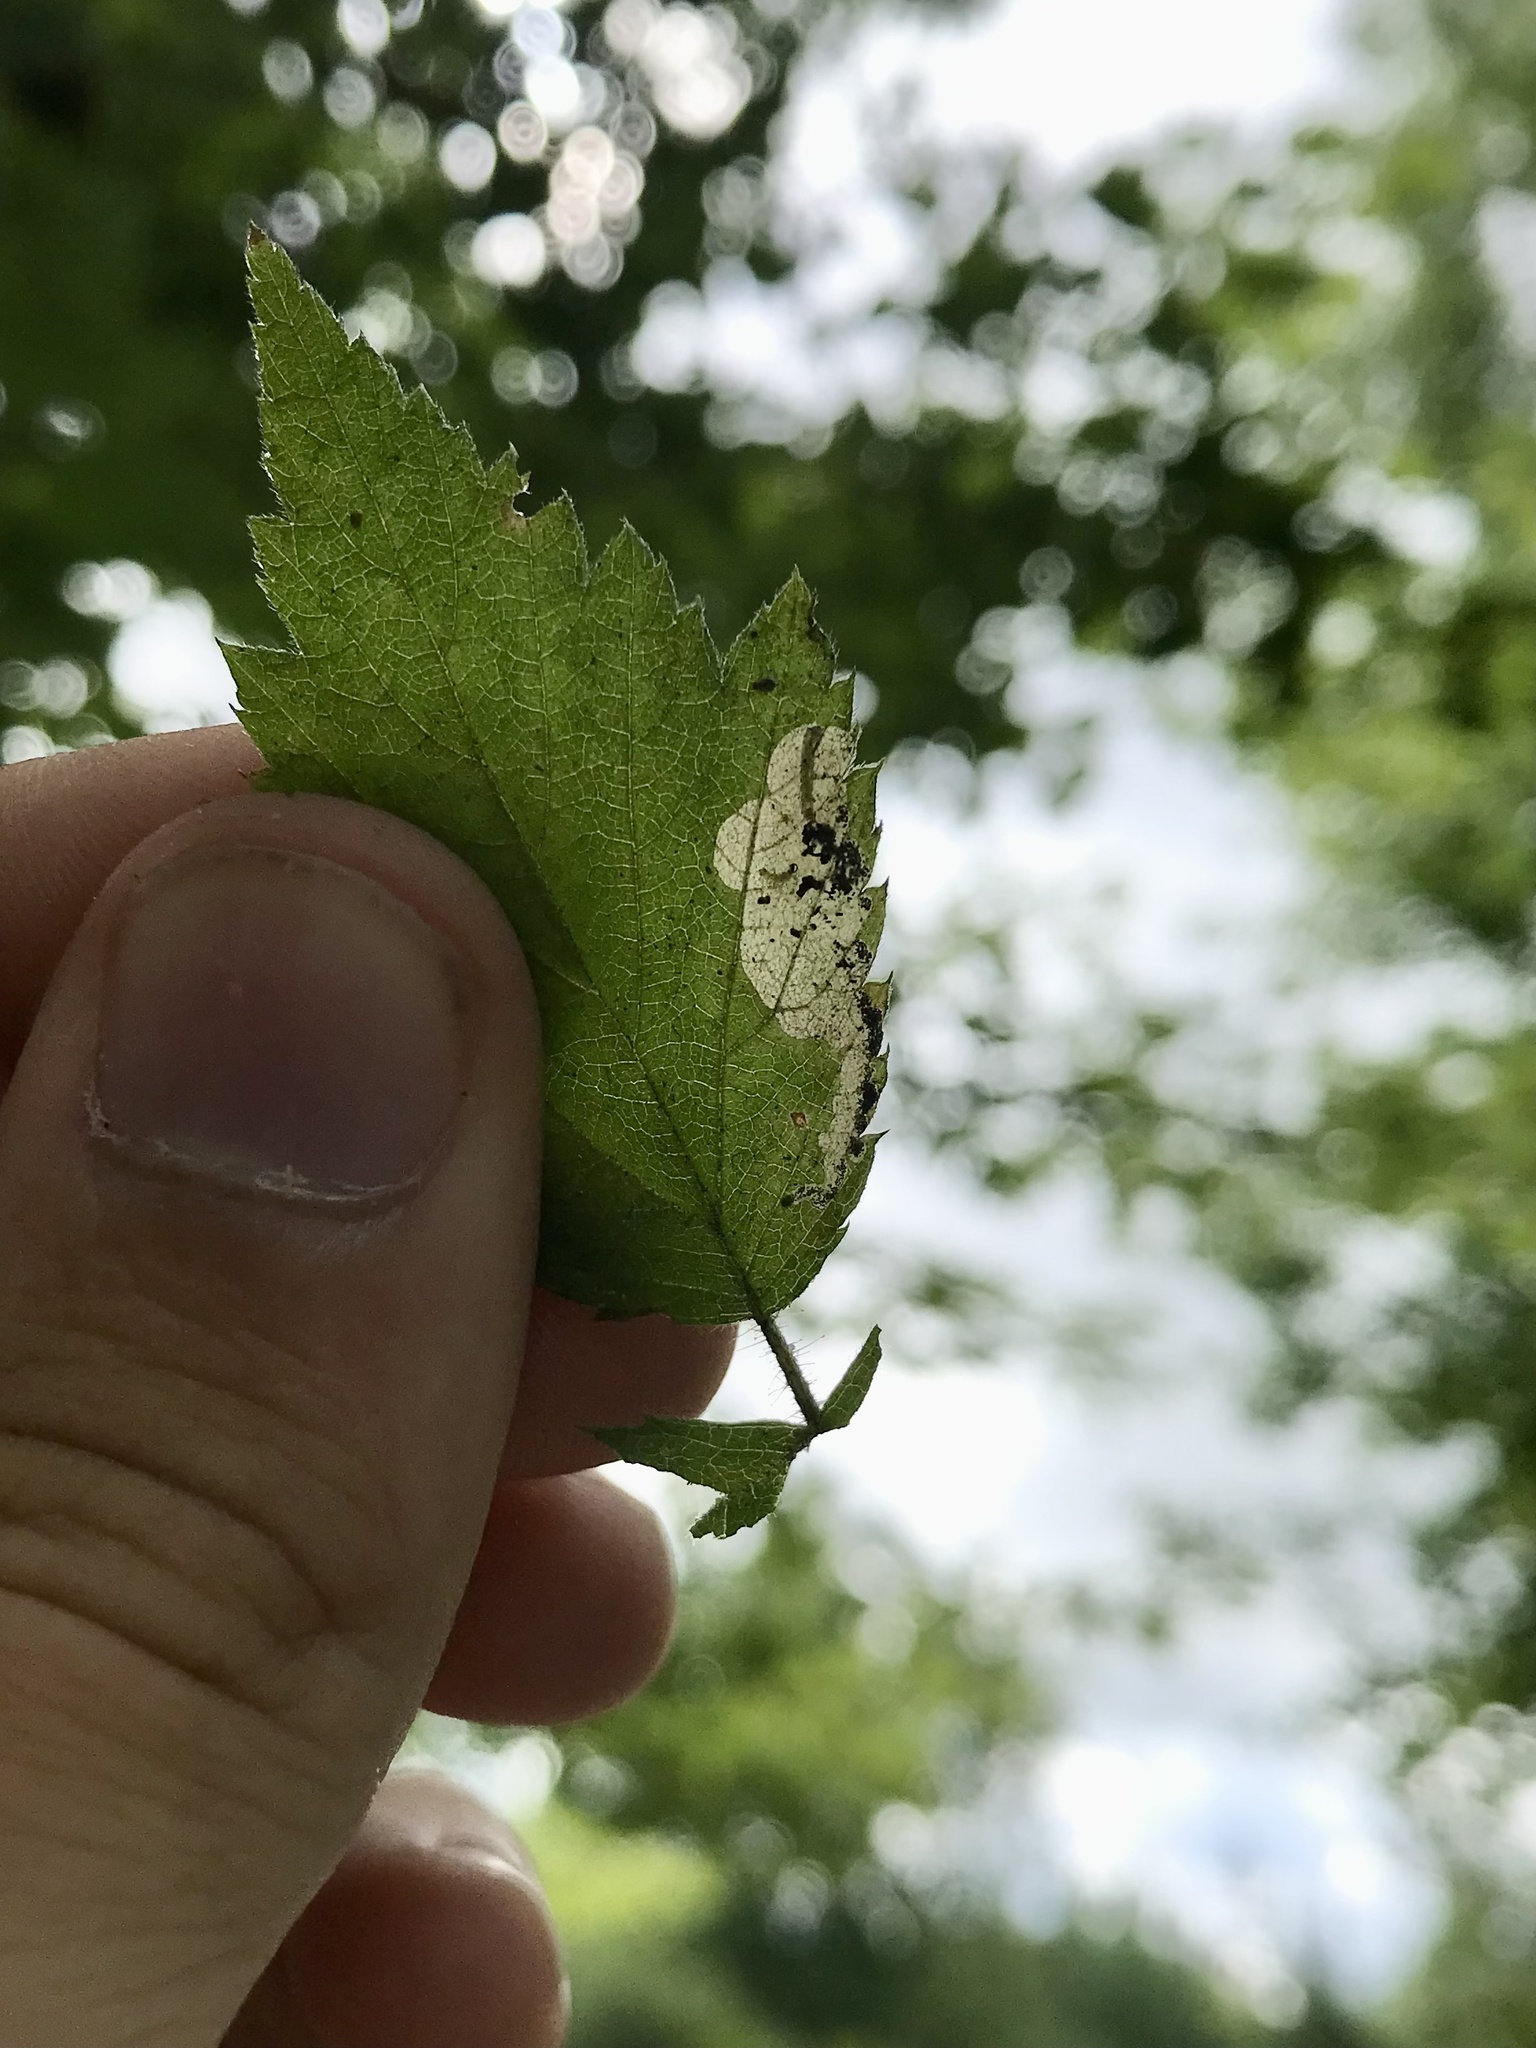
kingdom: Animalia
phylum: Arthropoda
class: Insecta
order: Hymenoptera
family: Tenthredinidae
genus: Metallus
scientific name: Metallus capitalis
